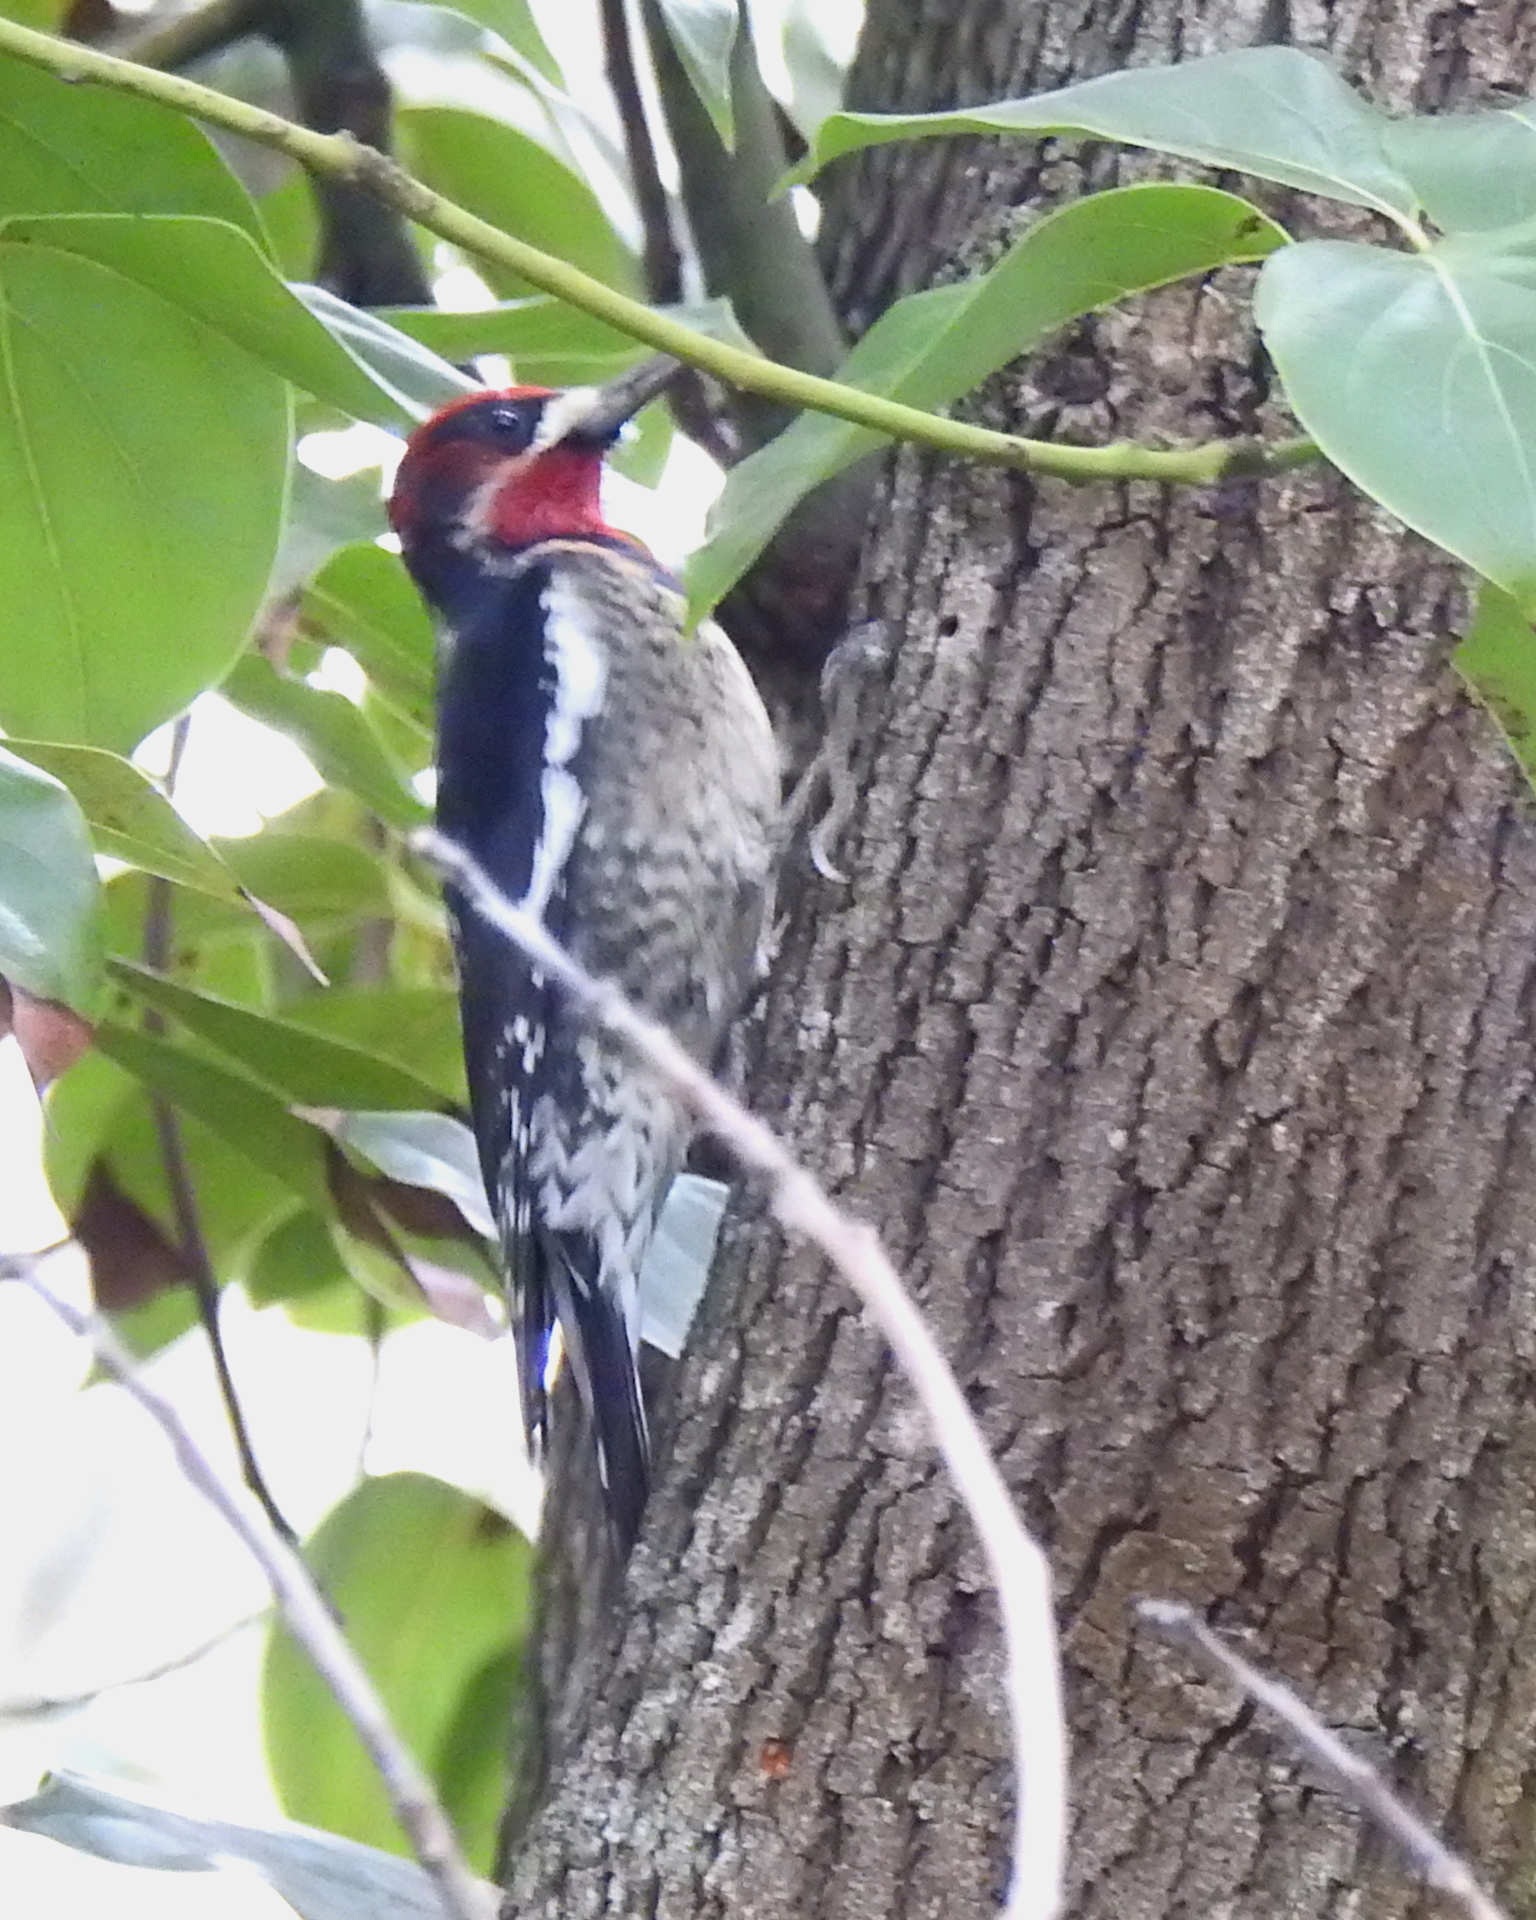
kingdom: Animalia
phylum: Chordata
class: Aves
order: Piciformes
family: Picidae
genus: Sphyrapicus
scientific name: Sphyrapicus
